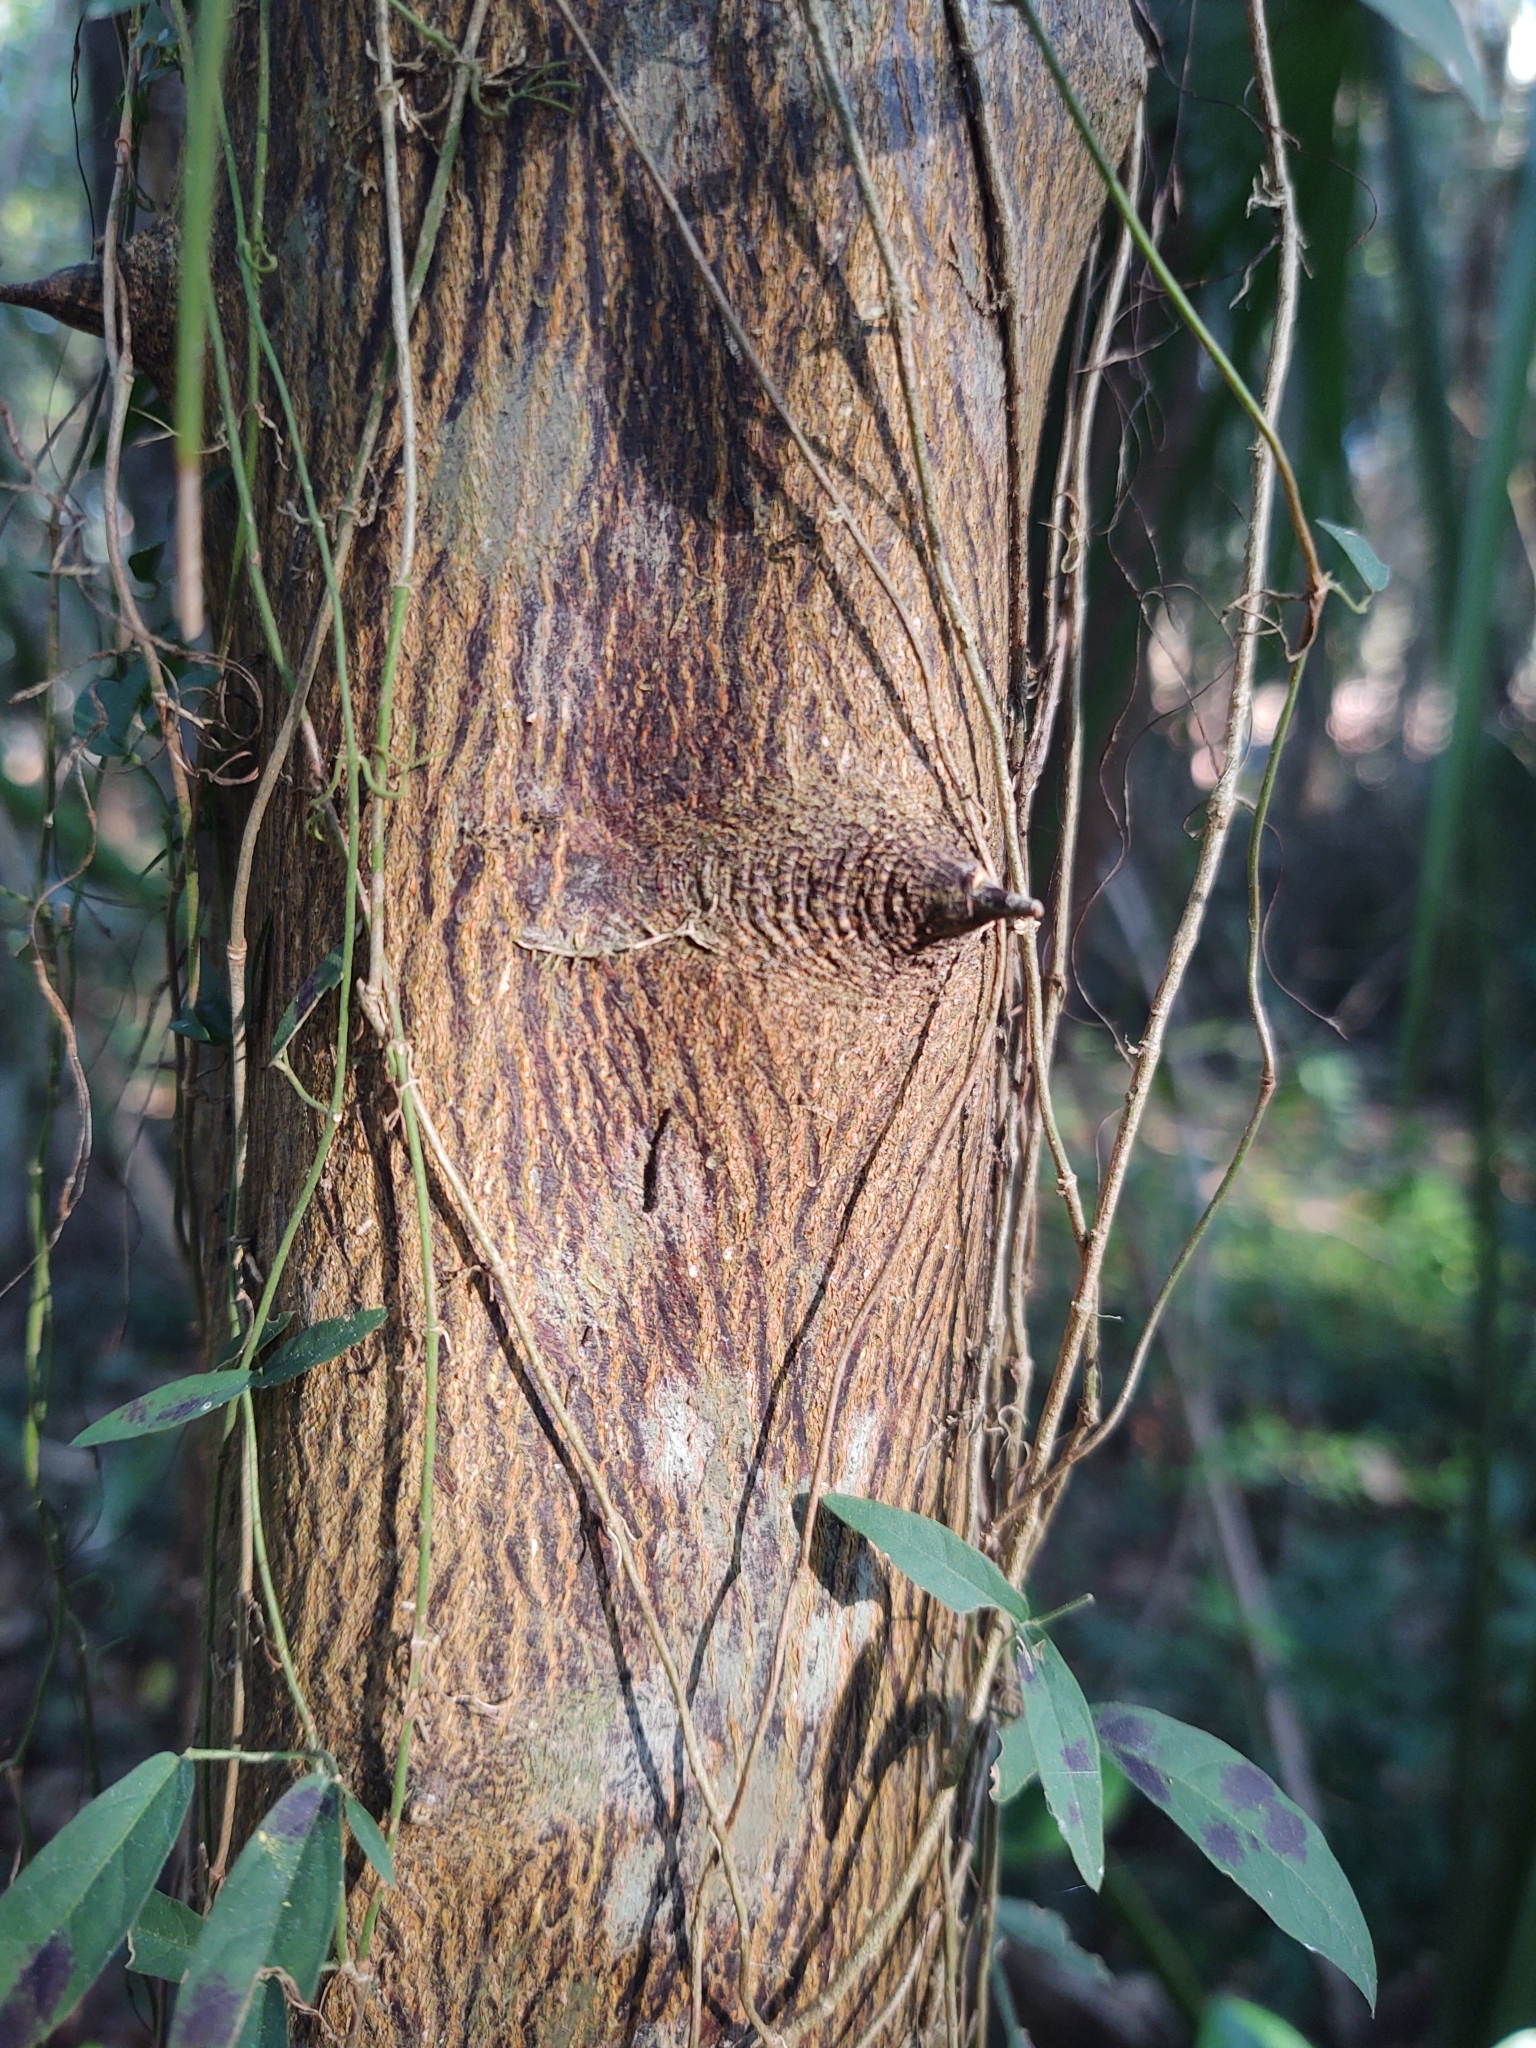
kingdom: Plantae
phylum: Tracheophyta
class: Magnoliopsida
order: Sapindales
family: Rutaceae
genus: Citrus
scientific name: Citrus aurantium
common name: Sour orange
